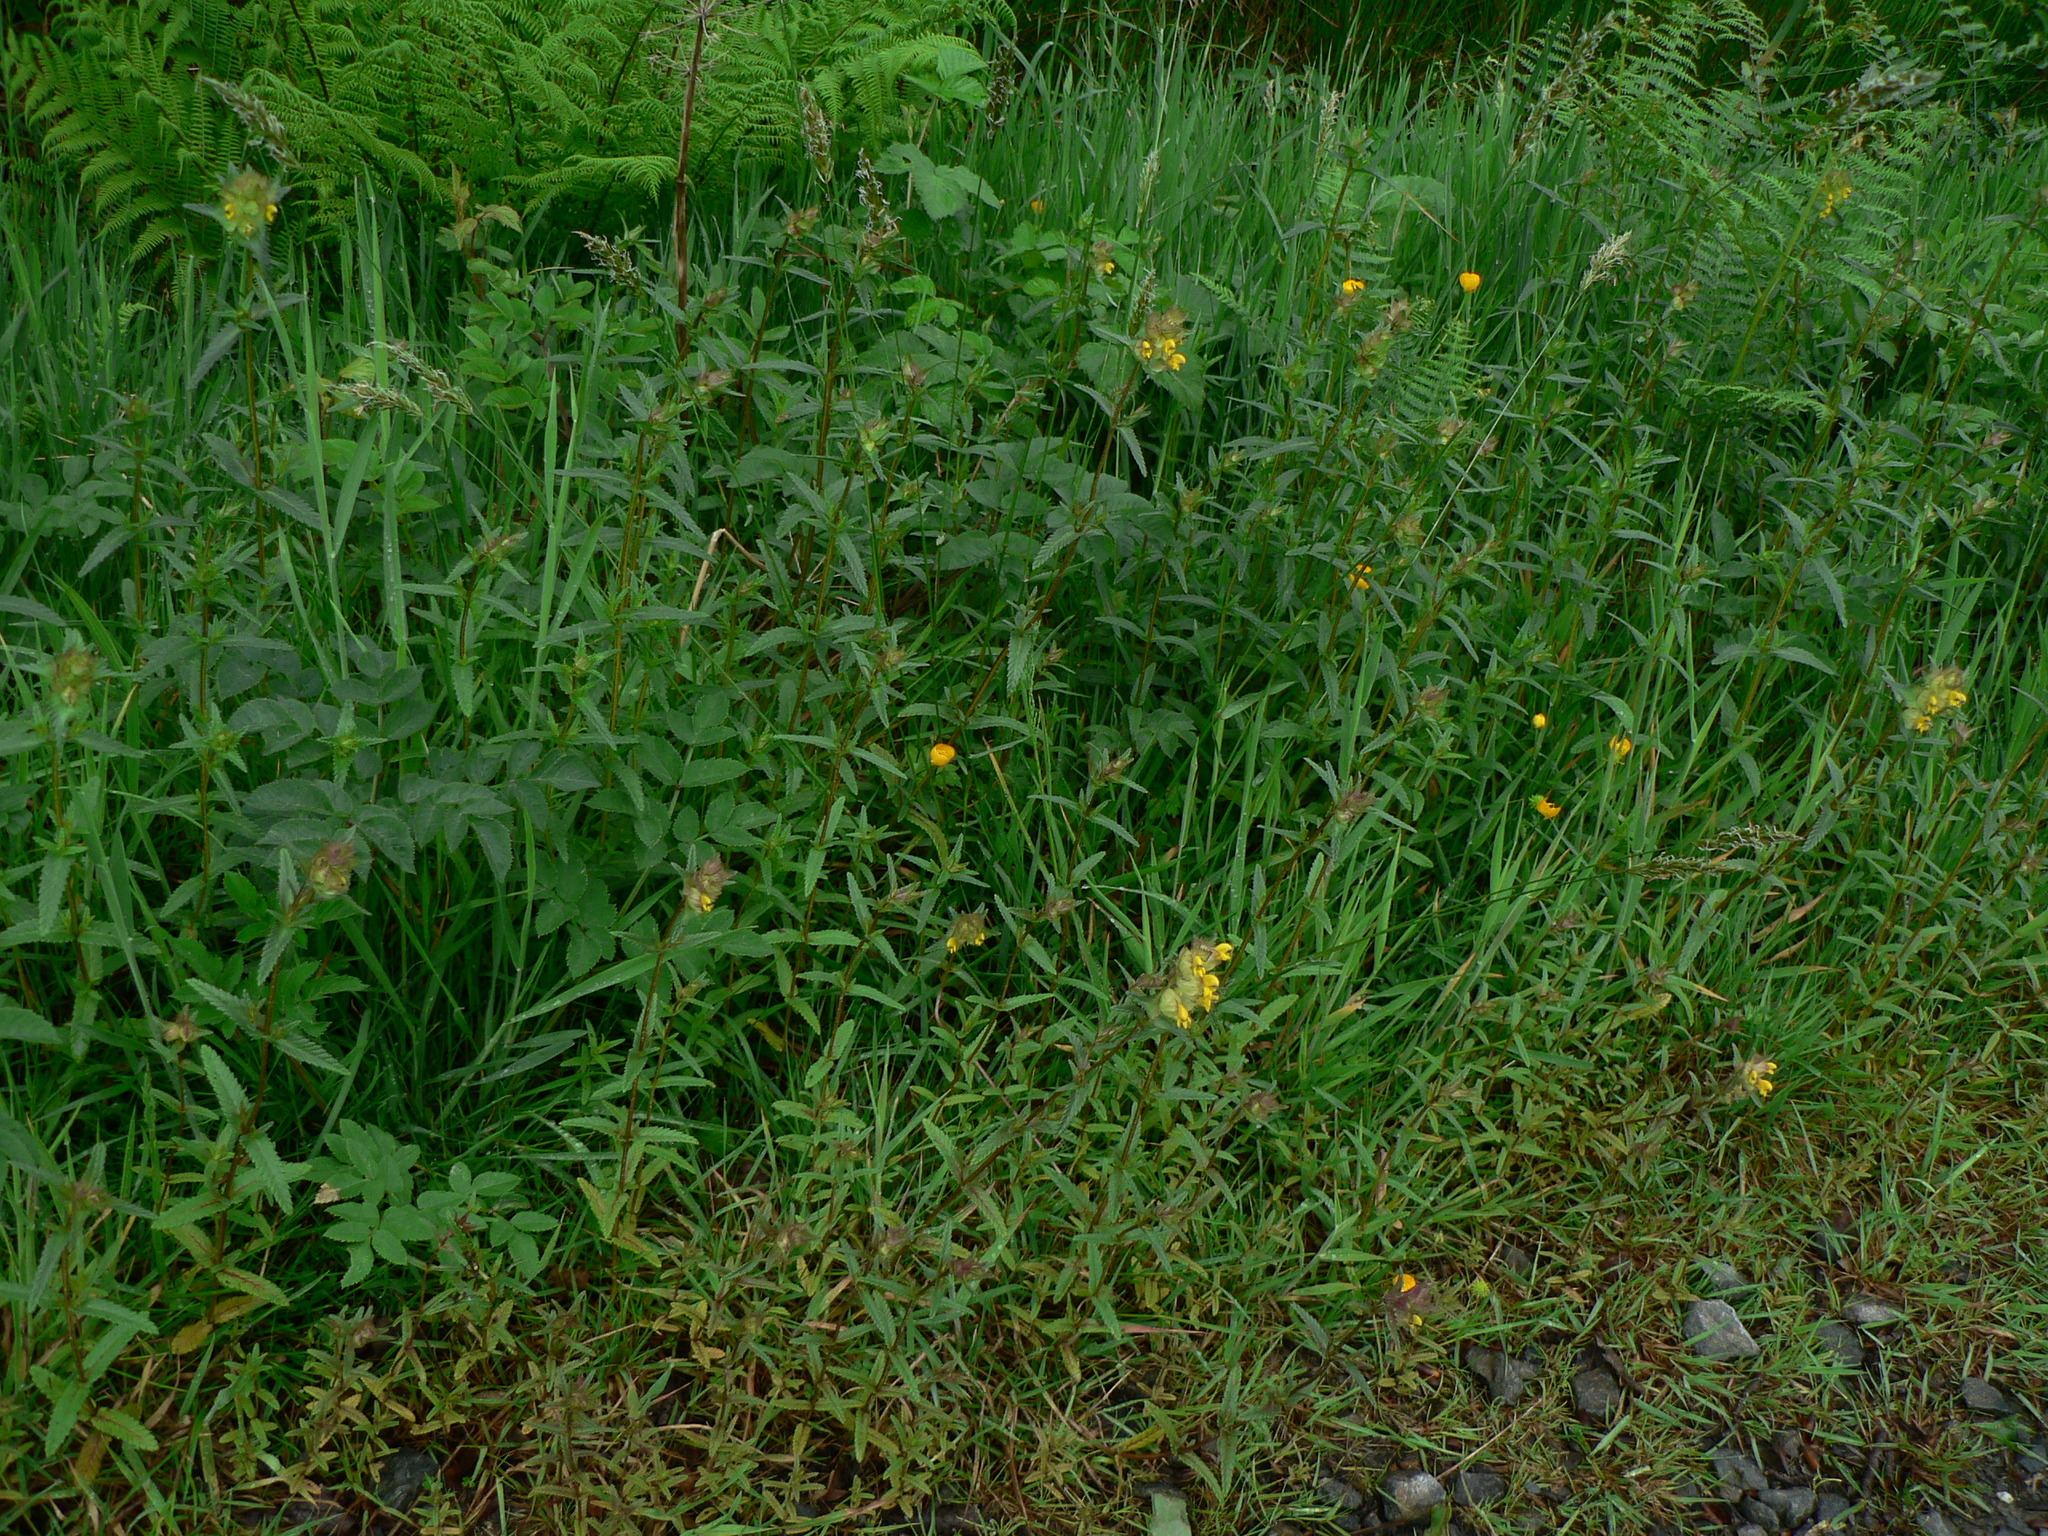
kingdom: Plantae
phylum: Tracheophyta
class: Magnoliopsida
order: Lamiales
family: Orobanchaceae
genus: Rhinanthus
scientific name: Rhinanthus minor
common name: Yellow-rattle
